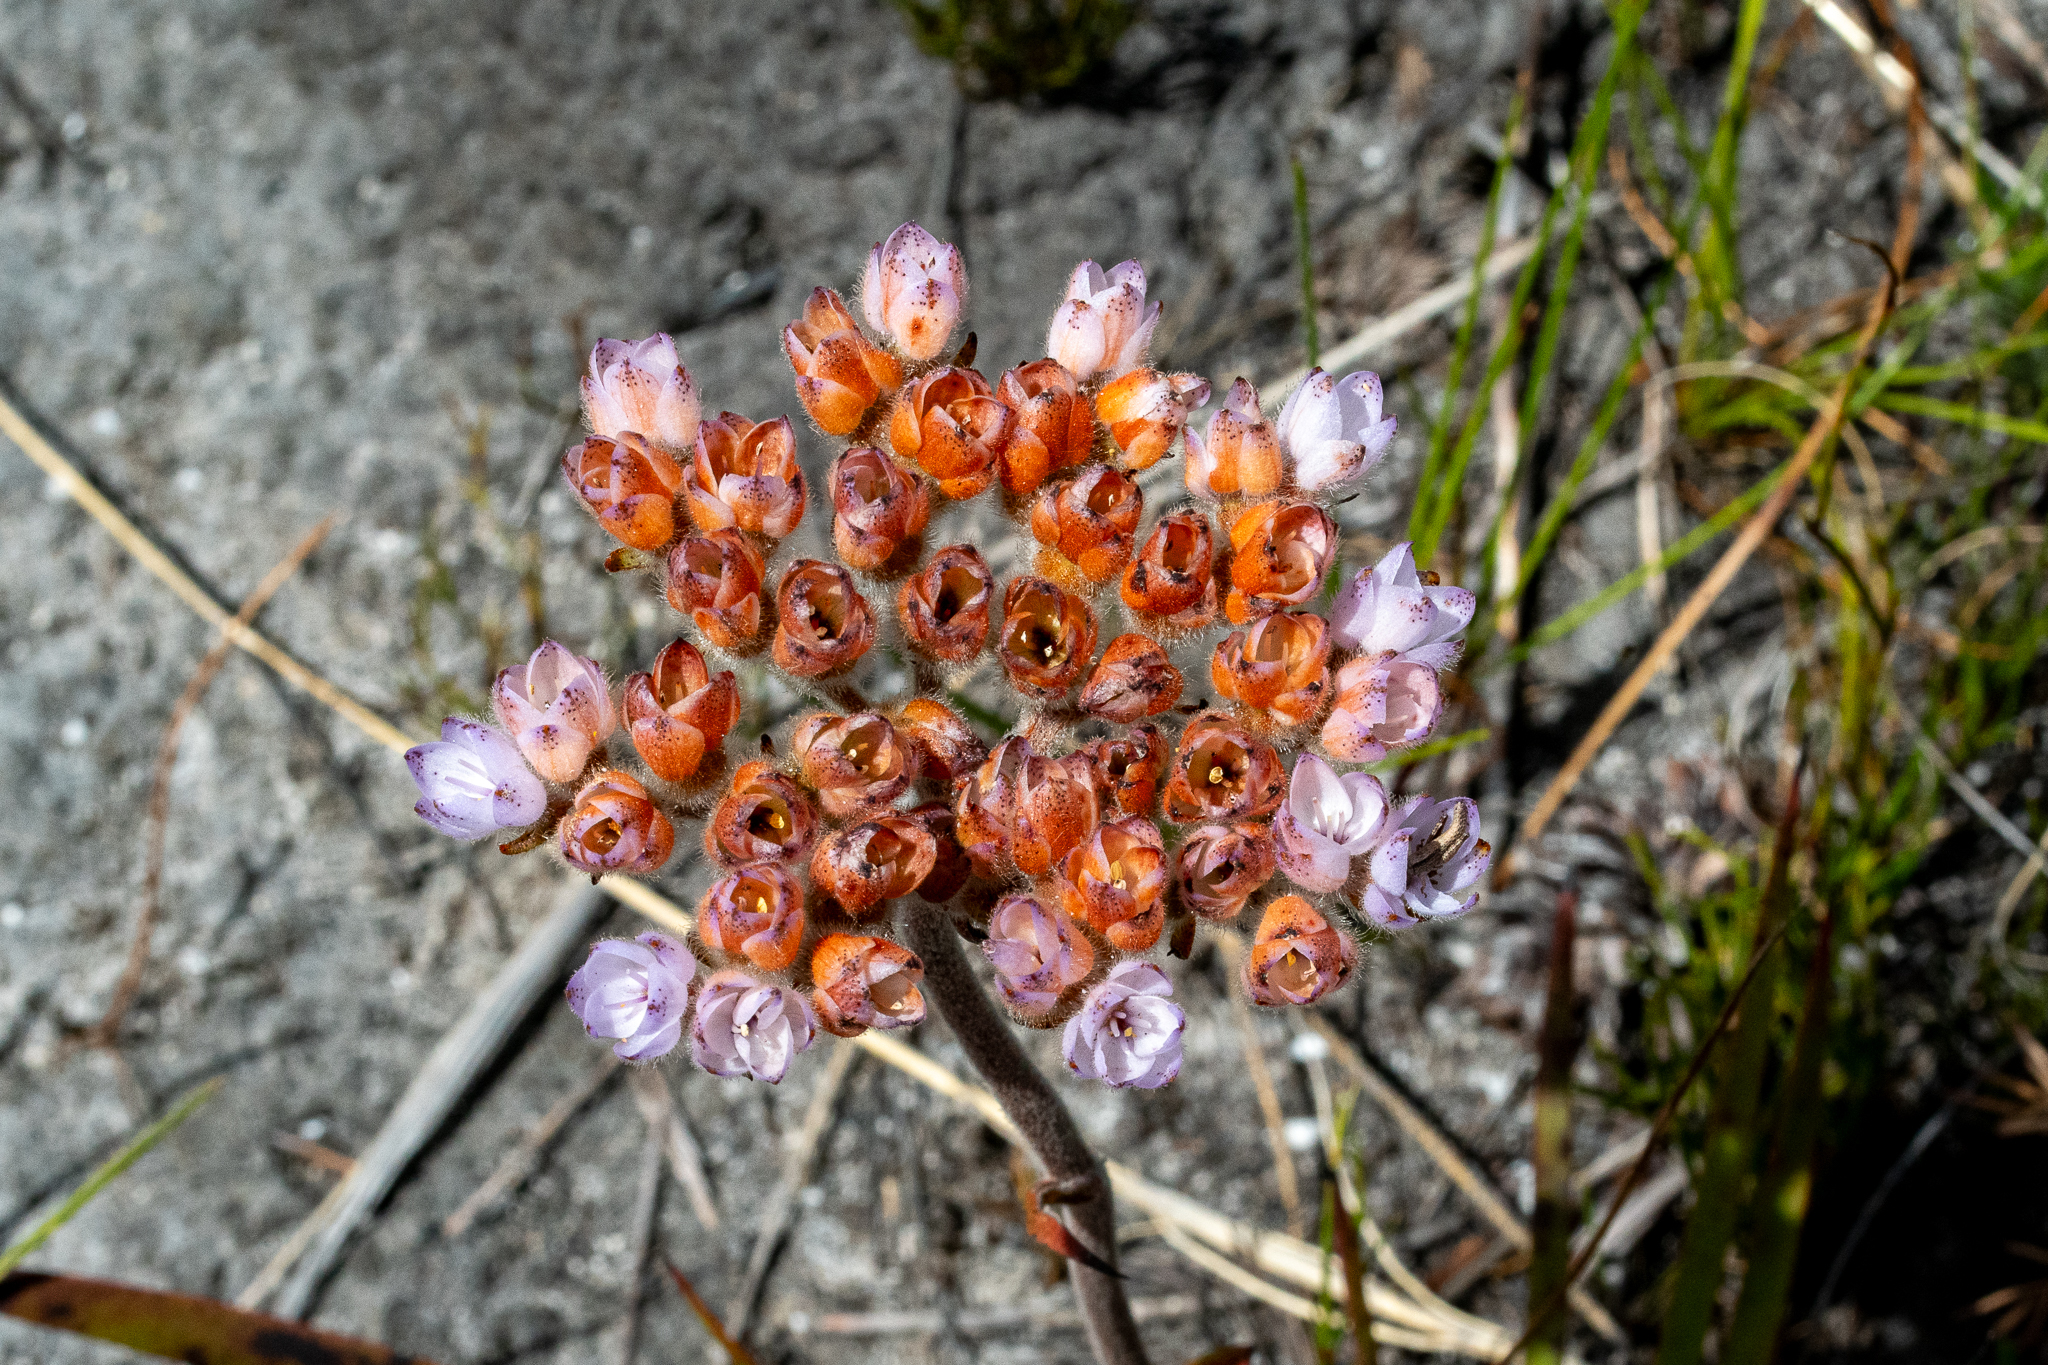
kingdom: Plantae
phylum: Tracheophyta
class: Liliopsida
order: Commelinales
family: Haemodoraceae
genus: Dilatris
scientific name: Dilatris pillansii
